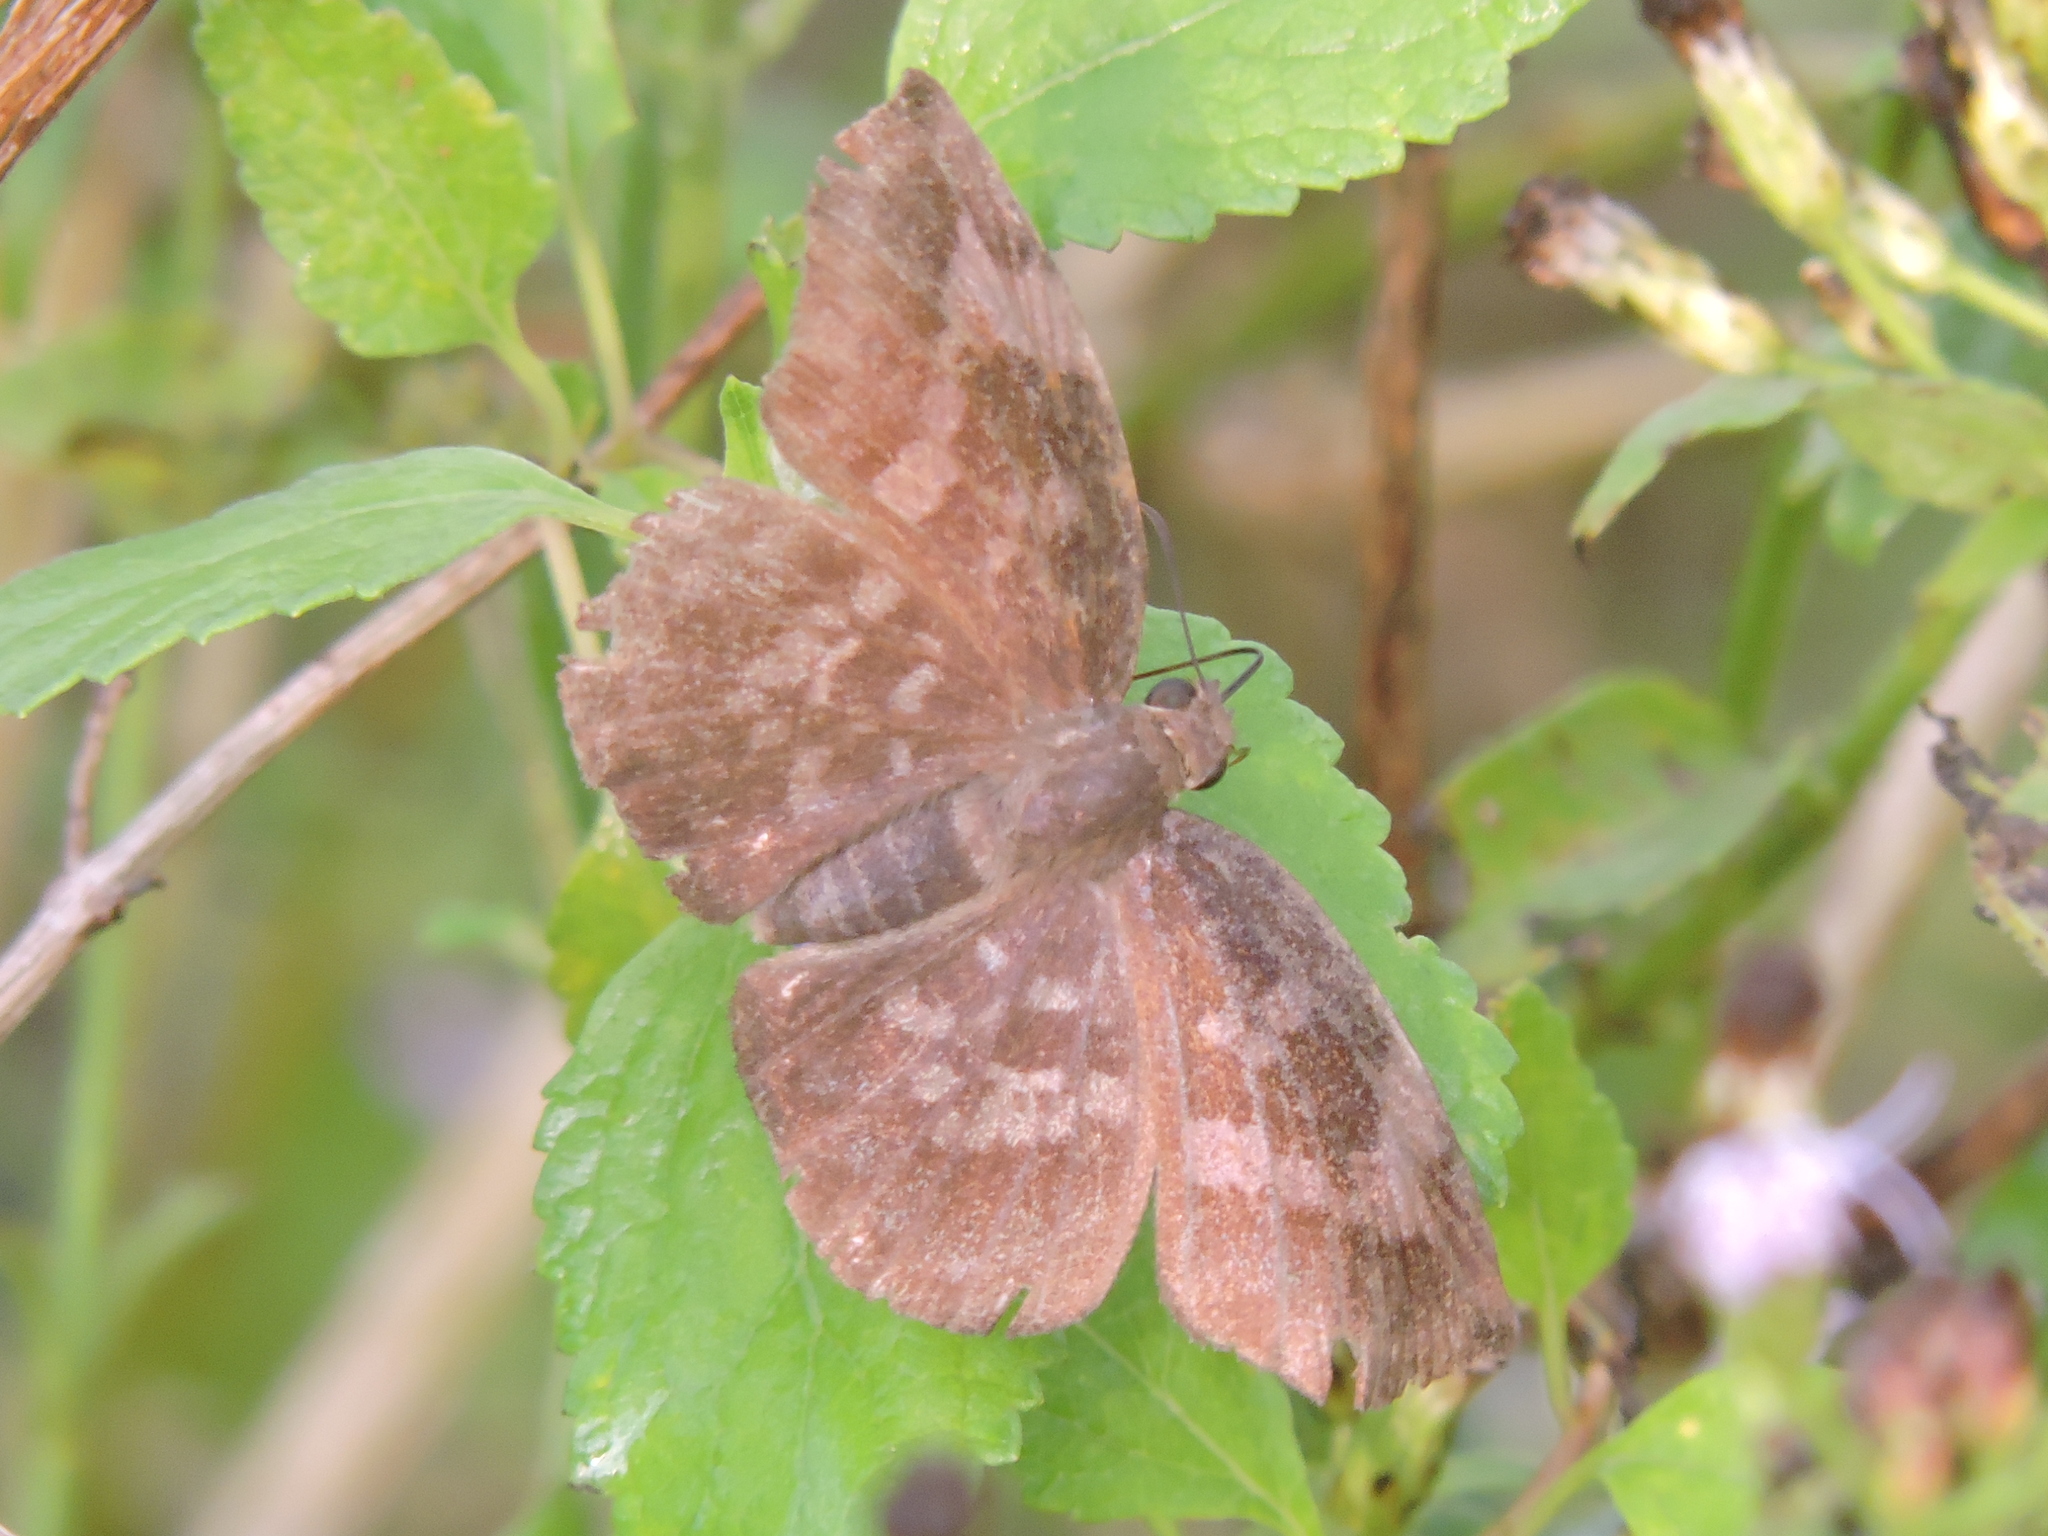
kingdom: Animalia
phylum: Arthropoda
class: Insecta
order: Lepidoptera
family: Hesperiidae
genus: Achlyodes
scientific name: Achlyodes thraso
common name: Sickle-winged skipper
